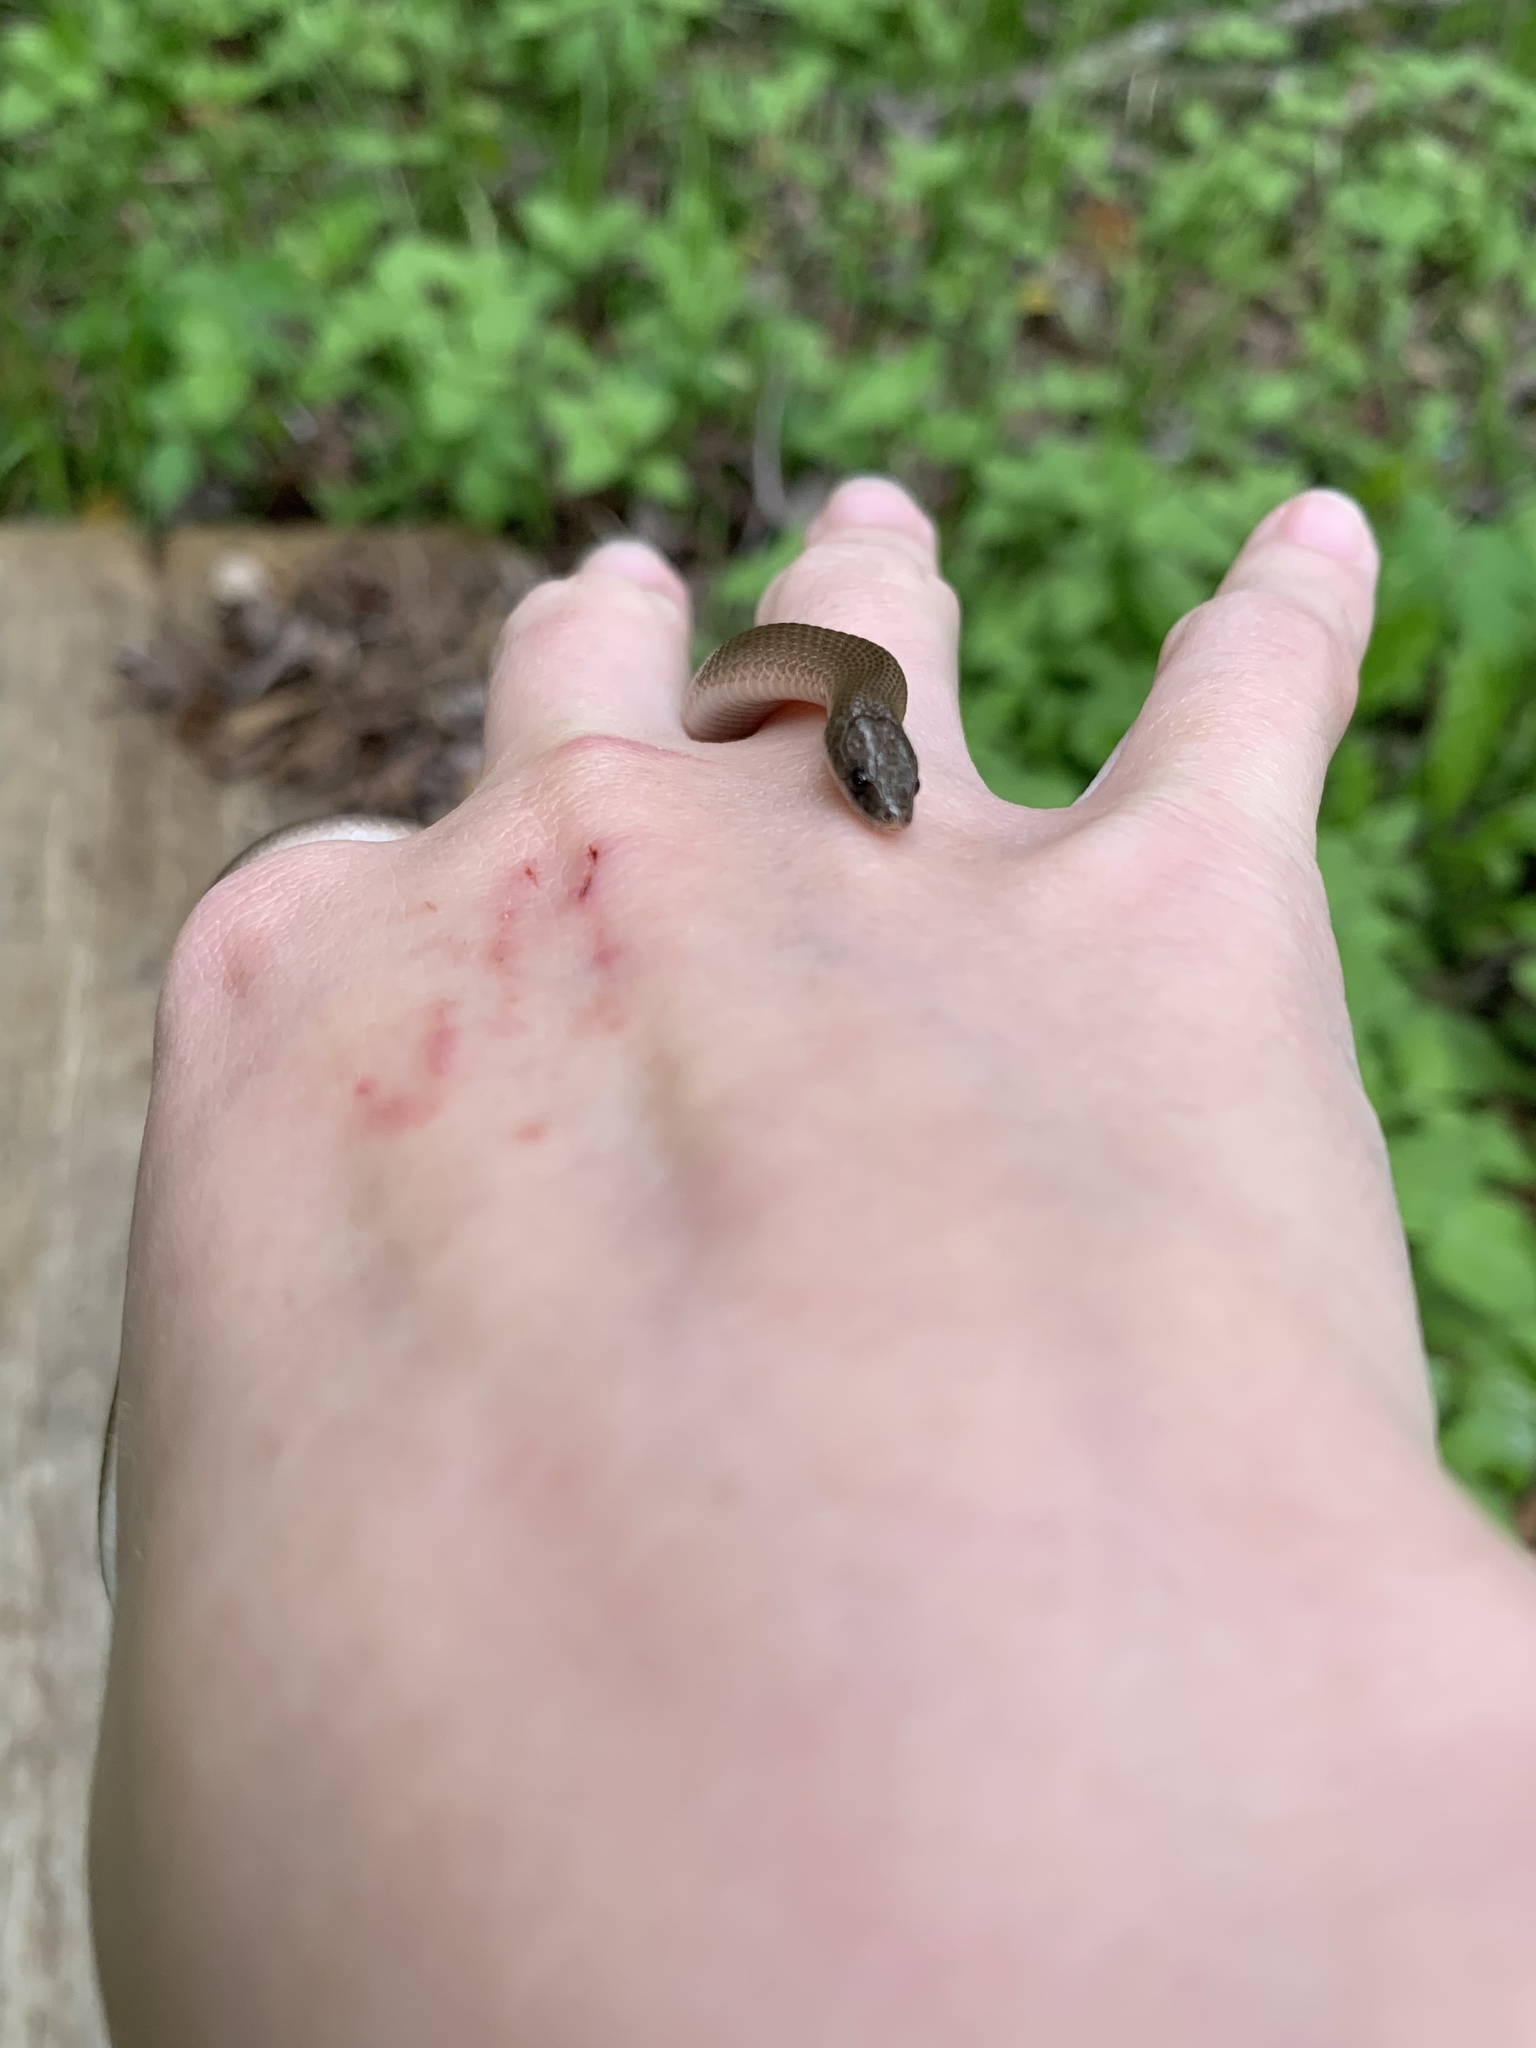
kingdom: Animalia
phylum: Chordata
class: Squamata
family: Colubridae
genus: Haldea
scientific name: Haldea striatula
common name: Rough earth snake
